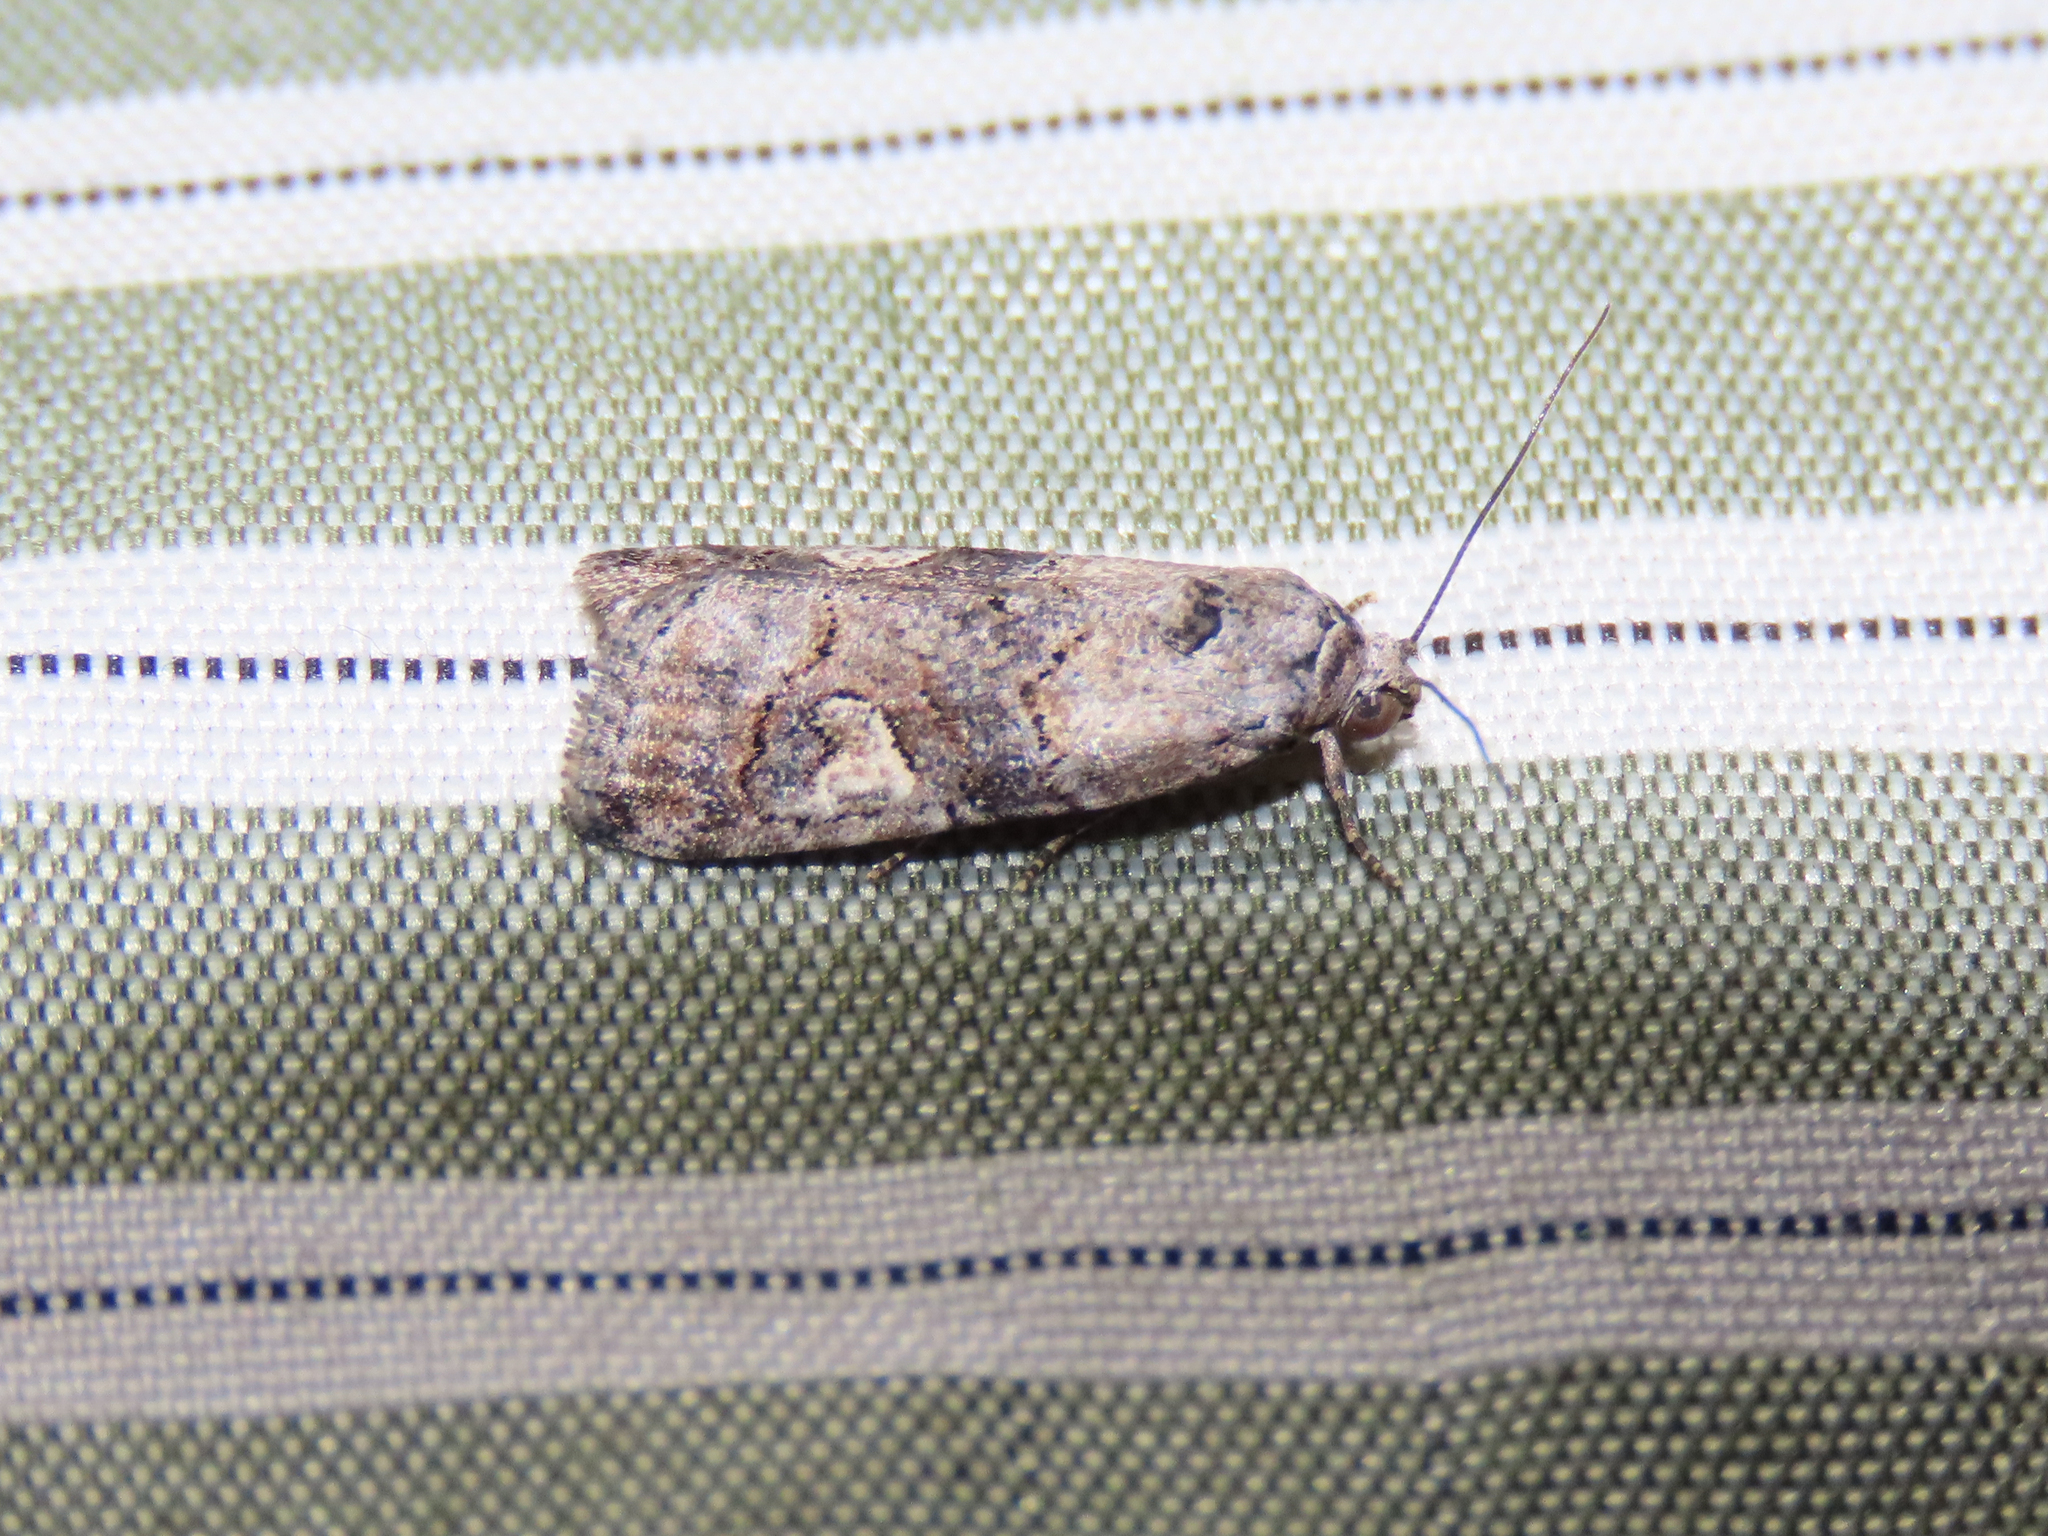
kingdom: Animalia
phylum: Arthropoda
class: Insecta
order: Lepidoptera
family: Noctuidae
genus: Metaponpneumata
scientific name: Metaponpneumata rogenhoferi
